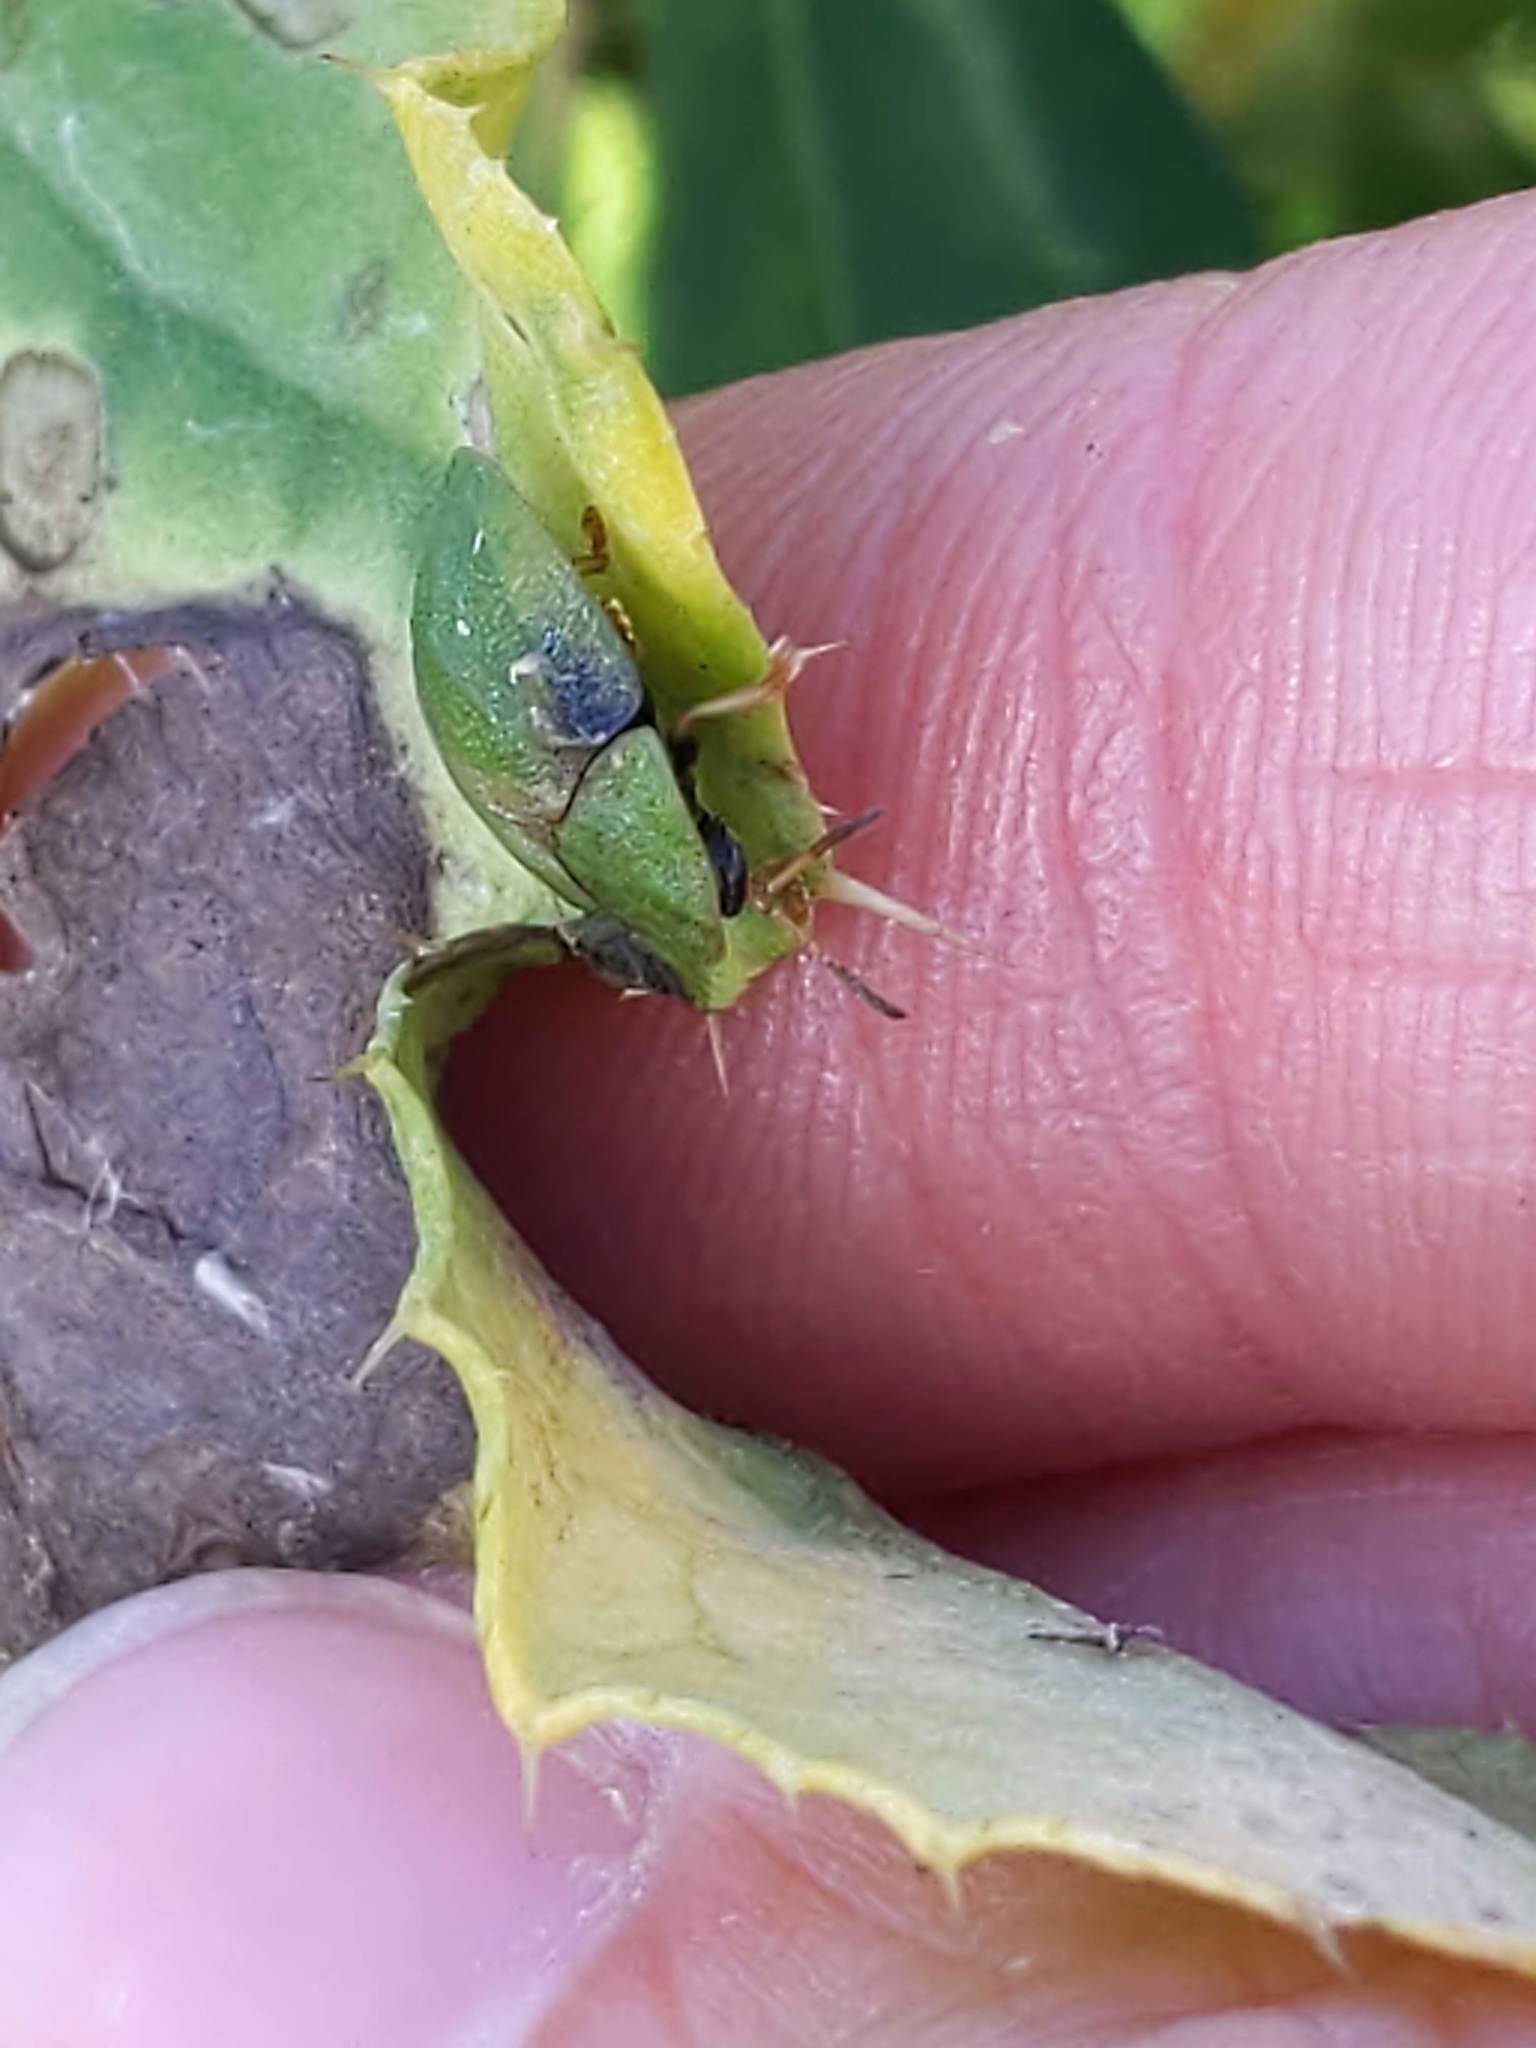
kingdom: Animalia
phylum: Arthropoda
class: Insecta
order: Coleoptera
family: Chrysomelidae
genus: Cassida
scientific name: Cassida rubiginosa
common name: Thistle tortoise beetle
